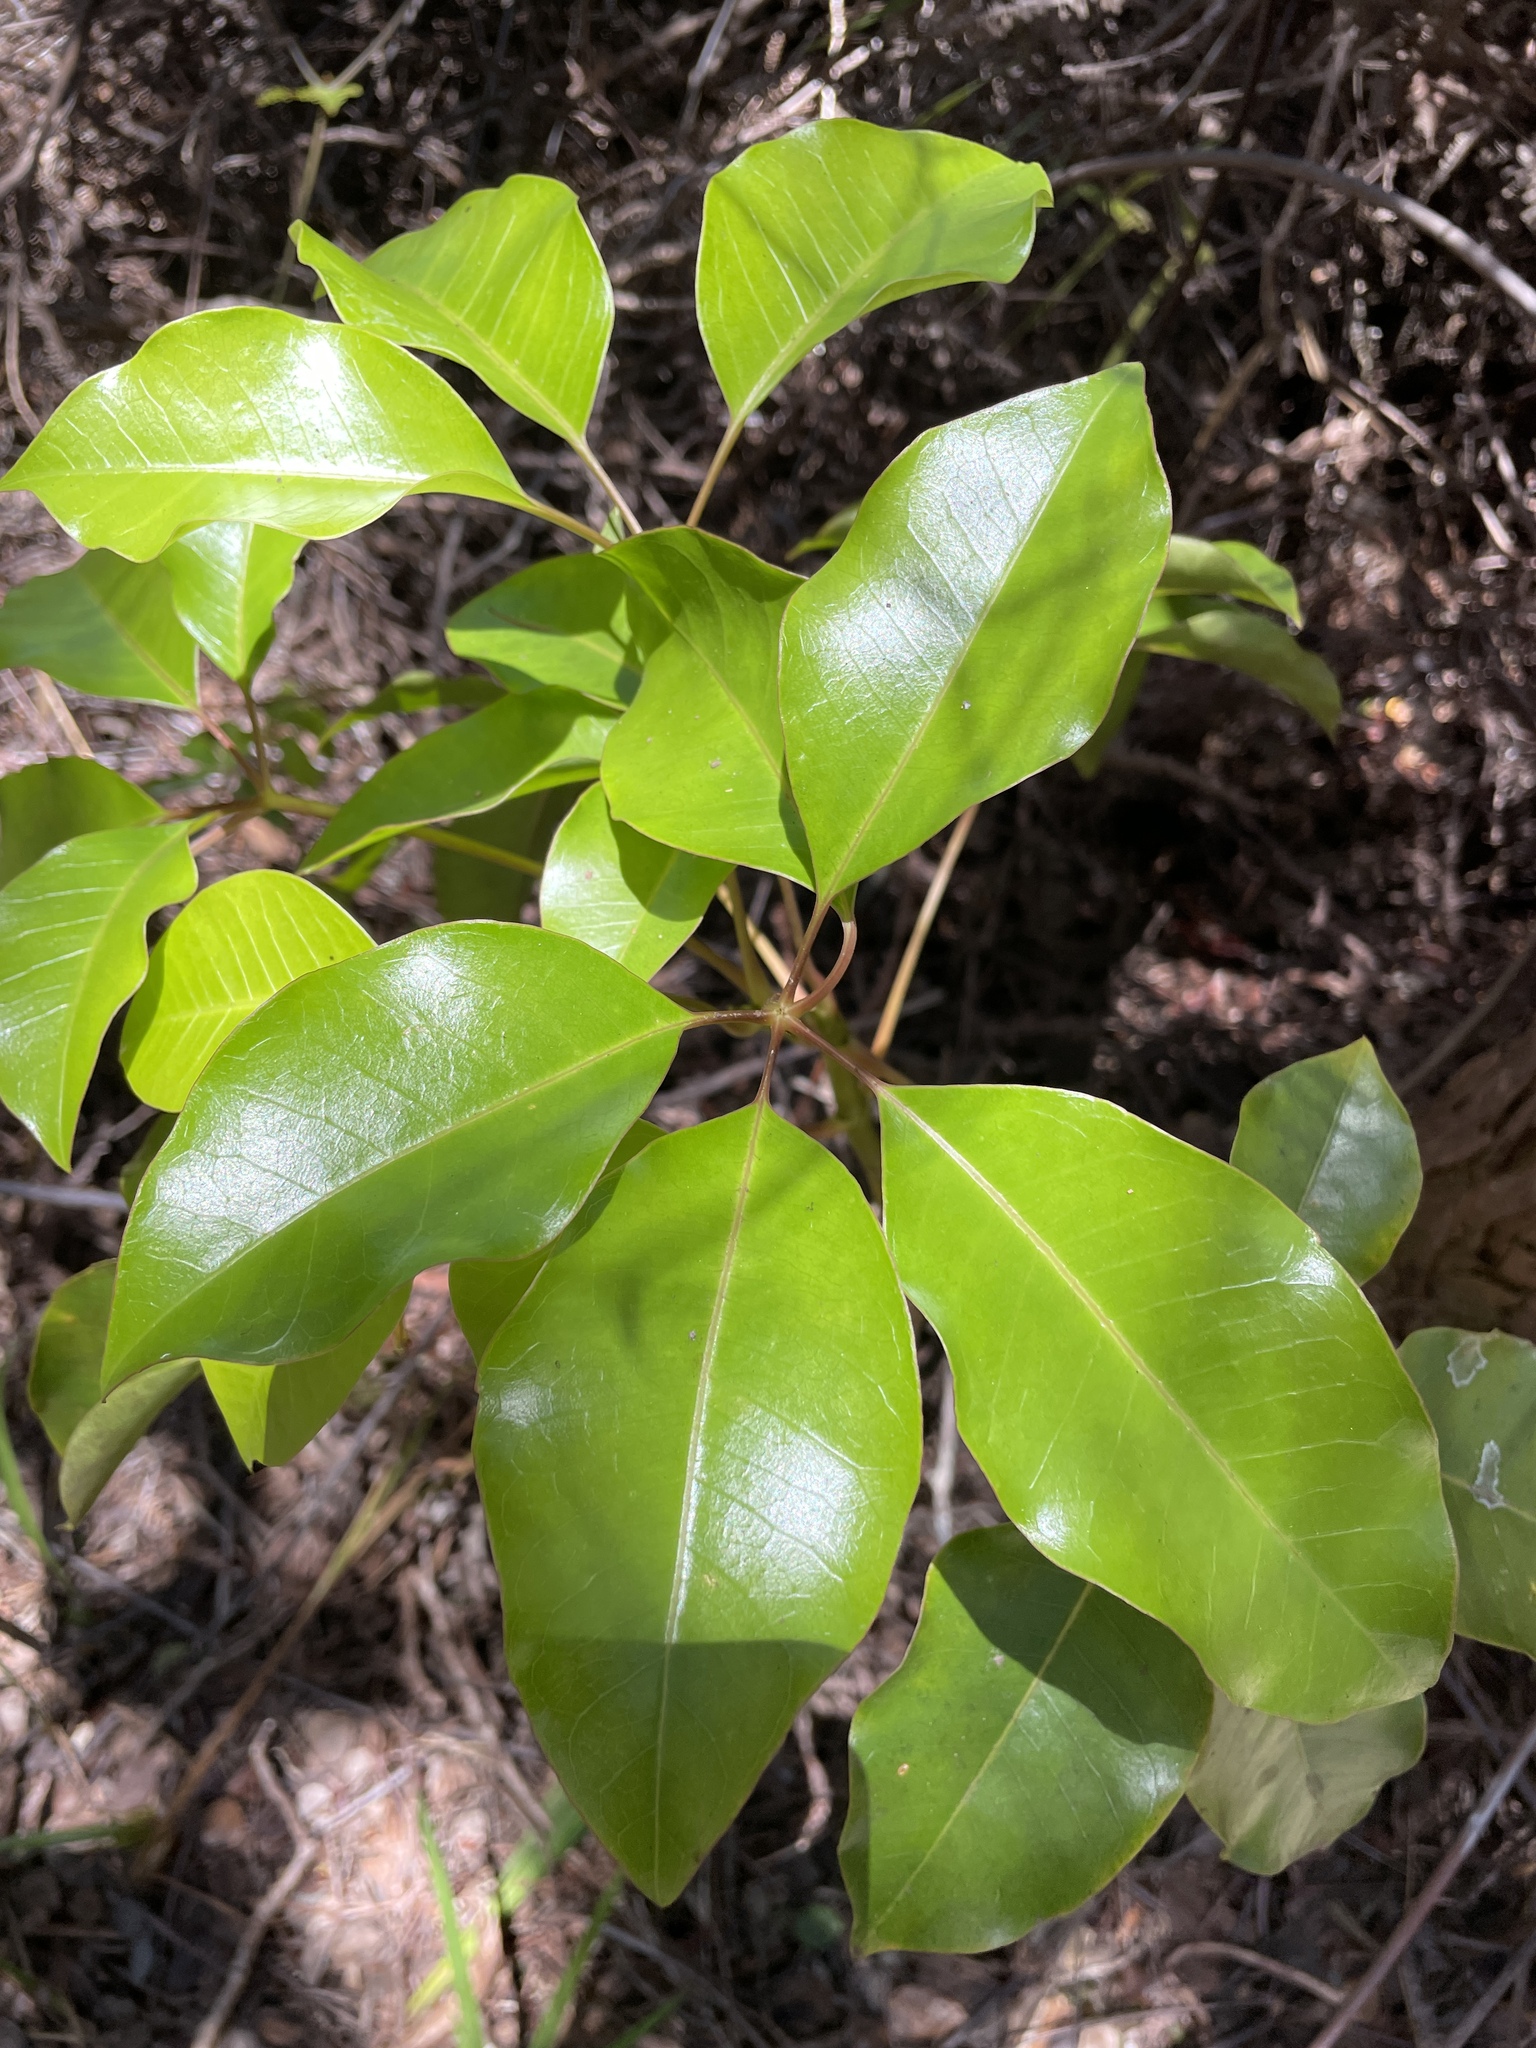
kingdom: Plantae
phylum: Tracheophyta
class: Magnoliopsida
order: Apiales
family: Araliaceae
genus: Cheirodendron
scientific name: Cheirodendron trigynum
